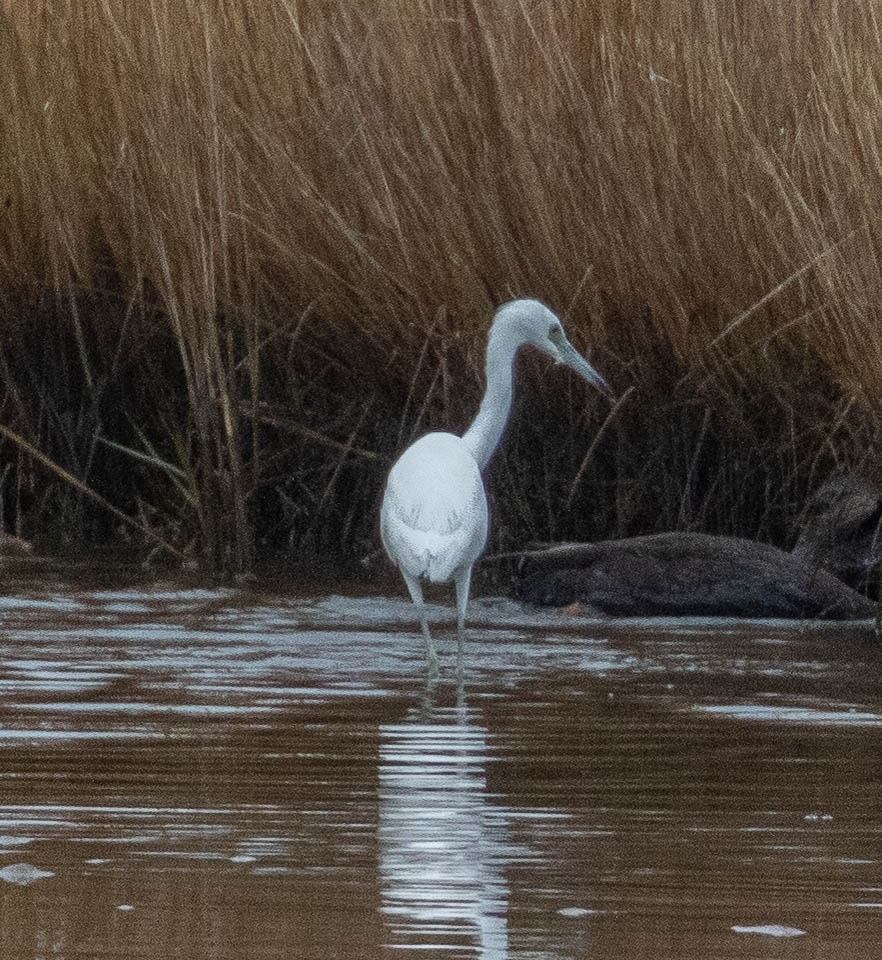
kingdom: Animalia
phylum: Chordata
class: Aves
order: Pelecaniformes
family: Ardeidae
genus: Egretta
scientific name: Egretta caerulea
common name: Little blue heron
